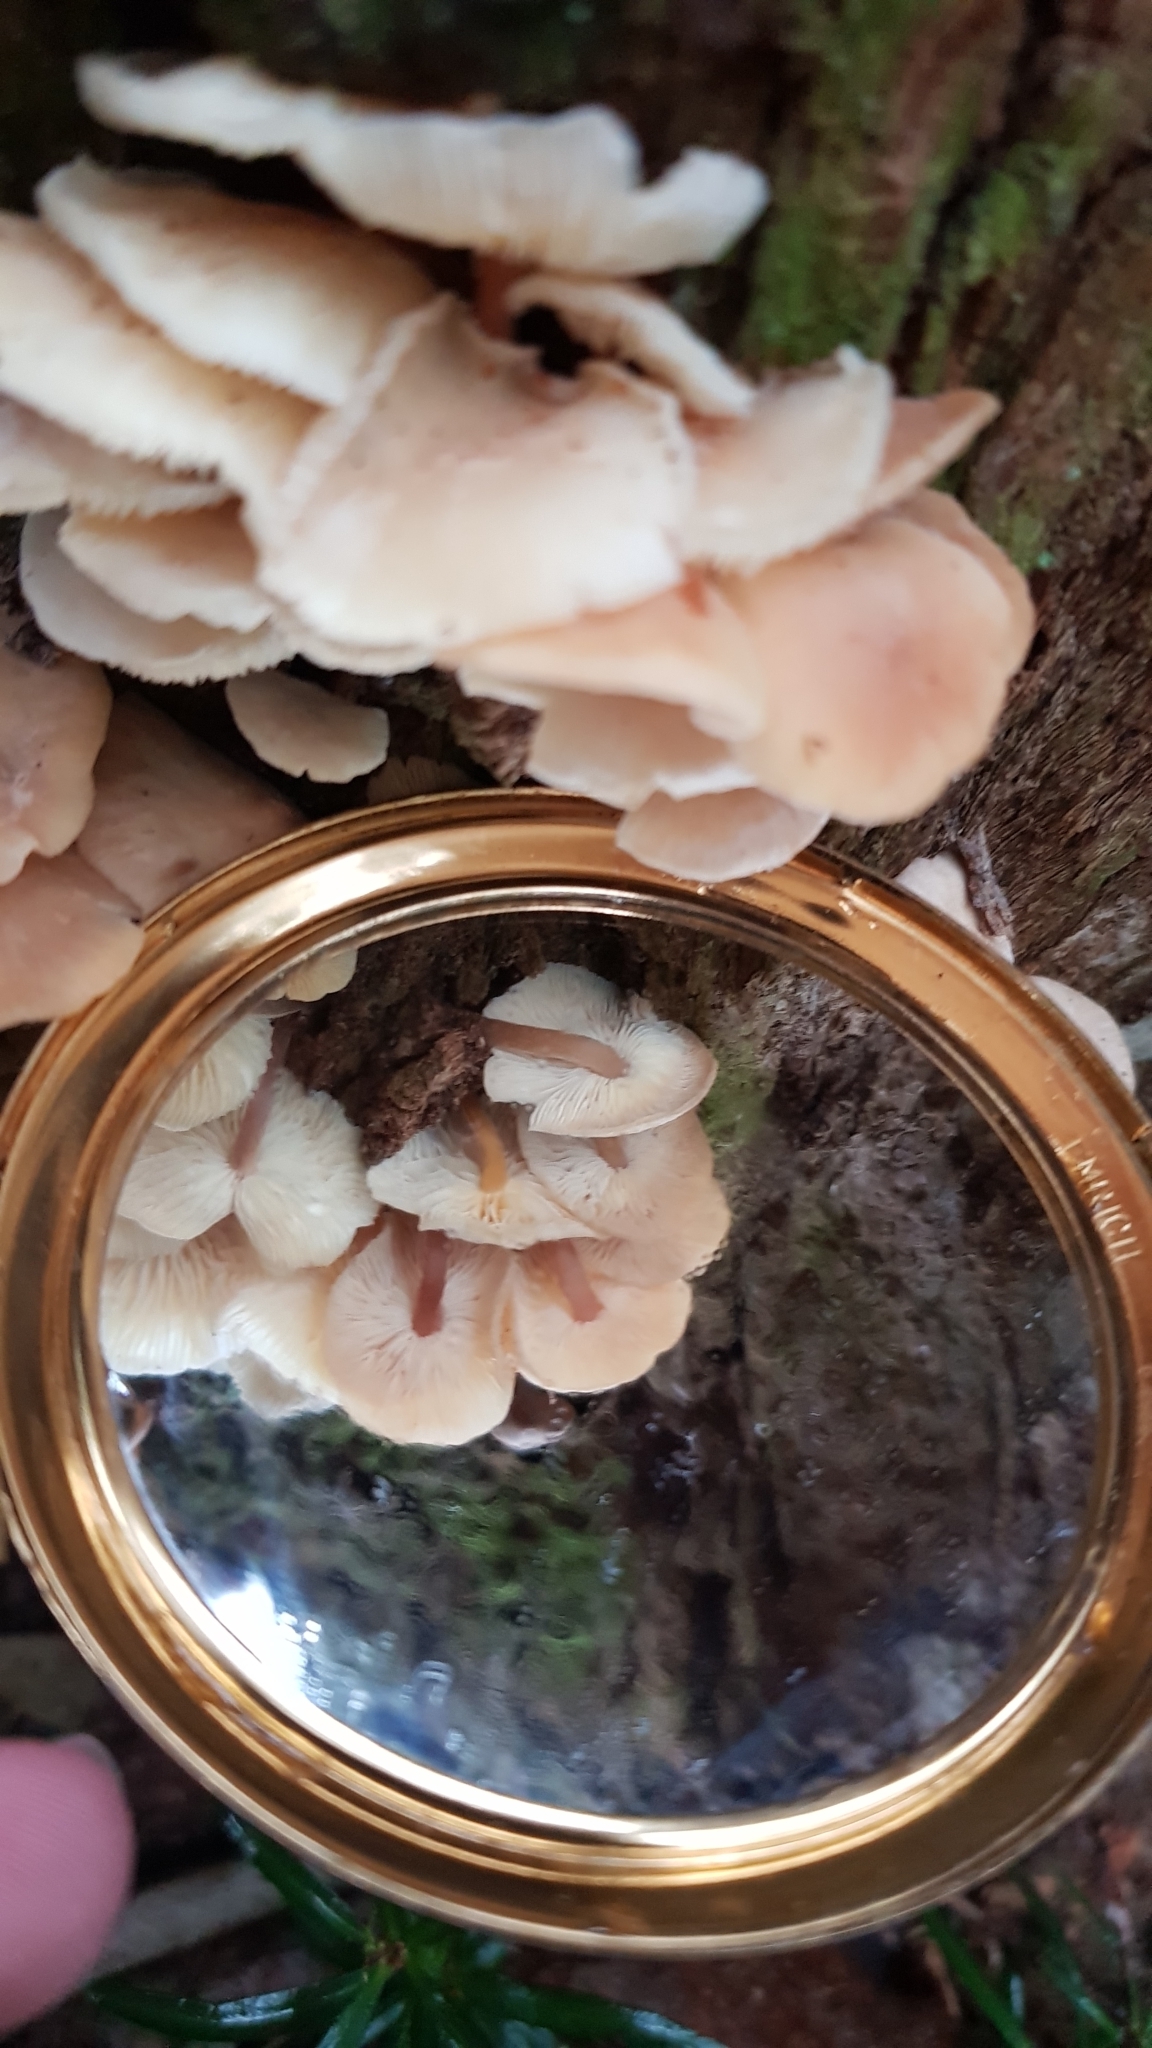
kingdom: Fungi
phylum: Basidiomycota
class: Agaricomycetes
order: Agaricales
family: Omphalotaceae
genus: Rhodocollybia
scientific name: Rhodocollybia
